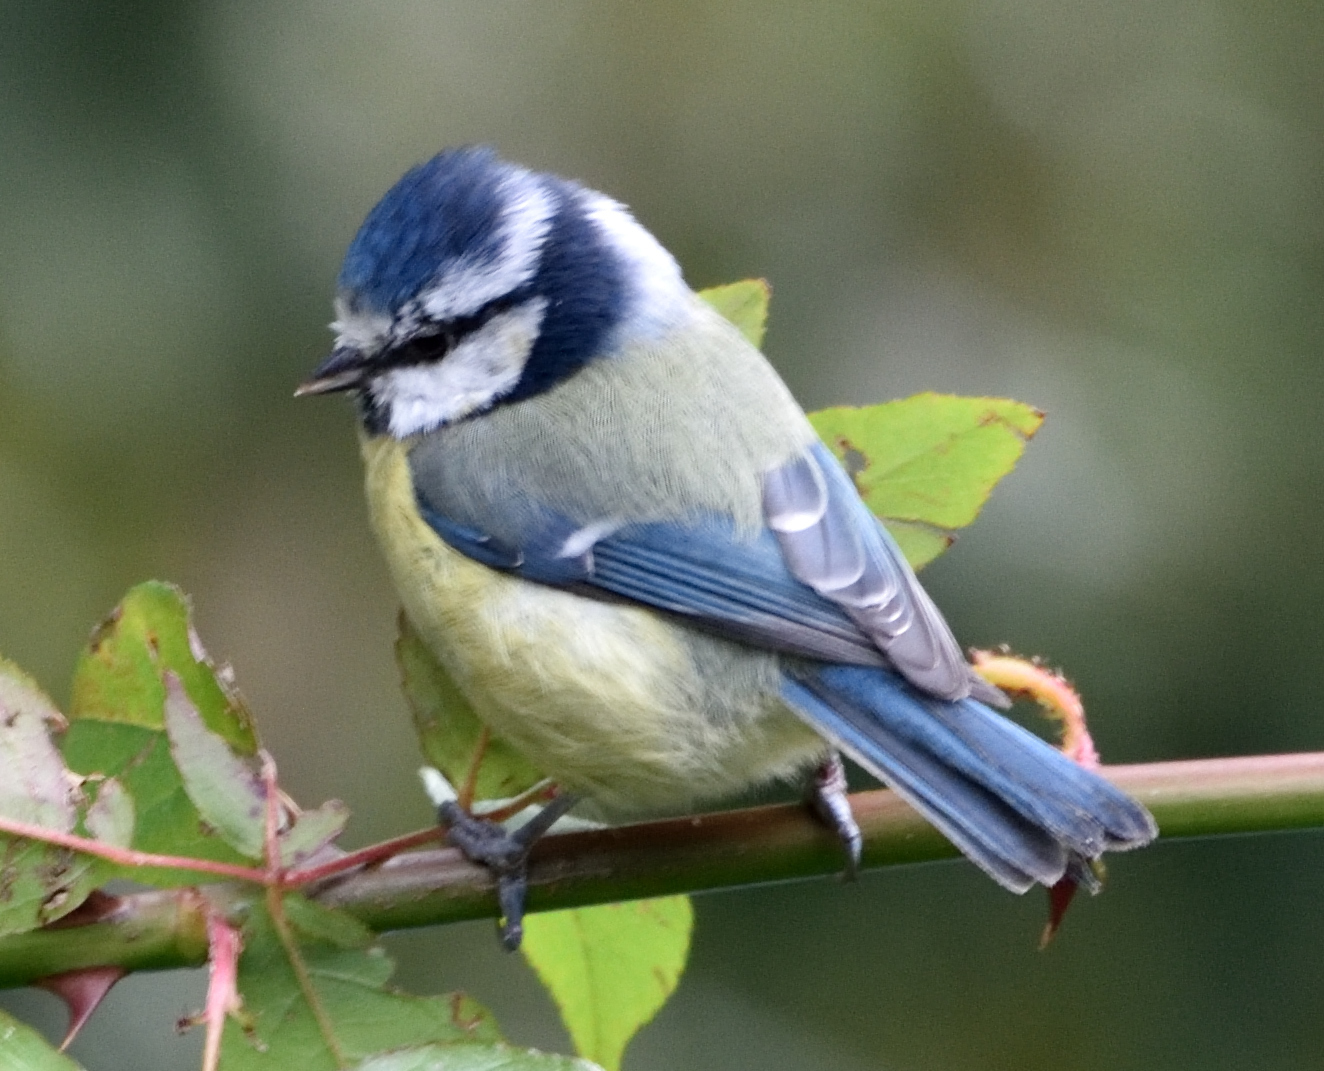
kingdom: Animalia
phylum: Chordata
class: Aves
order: Passeriformes
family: Paridae
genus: Cyanistes
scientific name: Cyanistes caeruleus
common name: Eurasian blue tit
